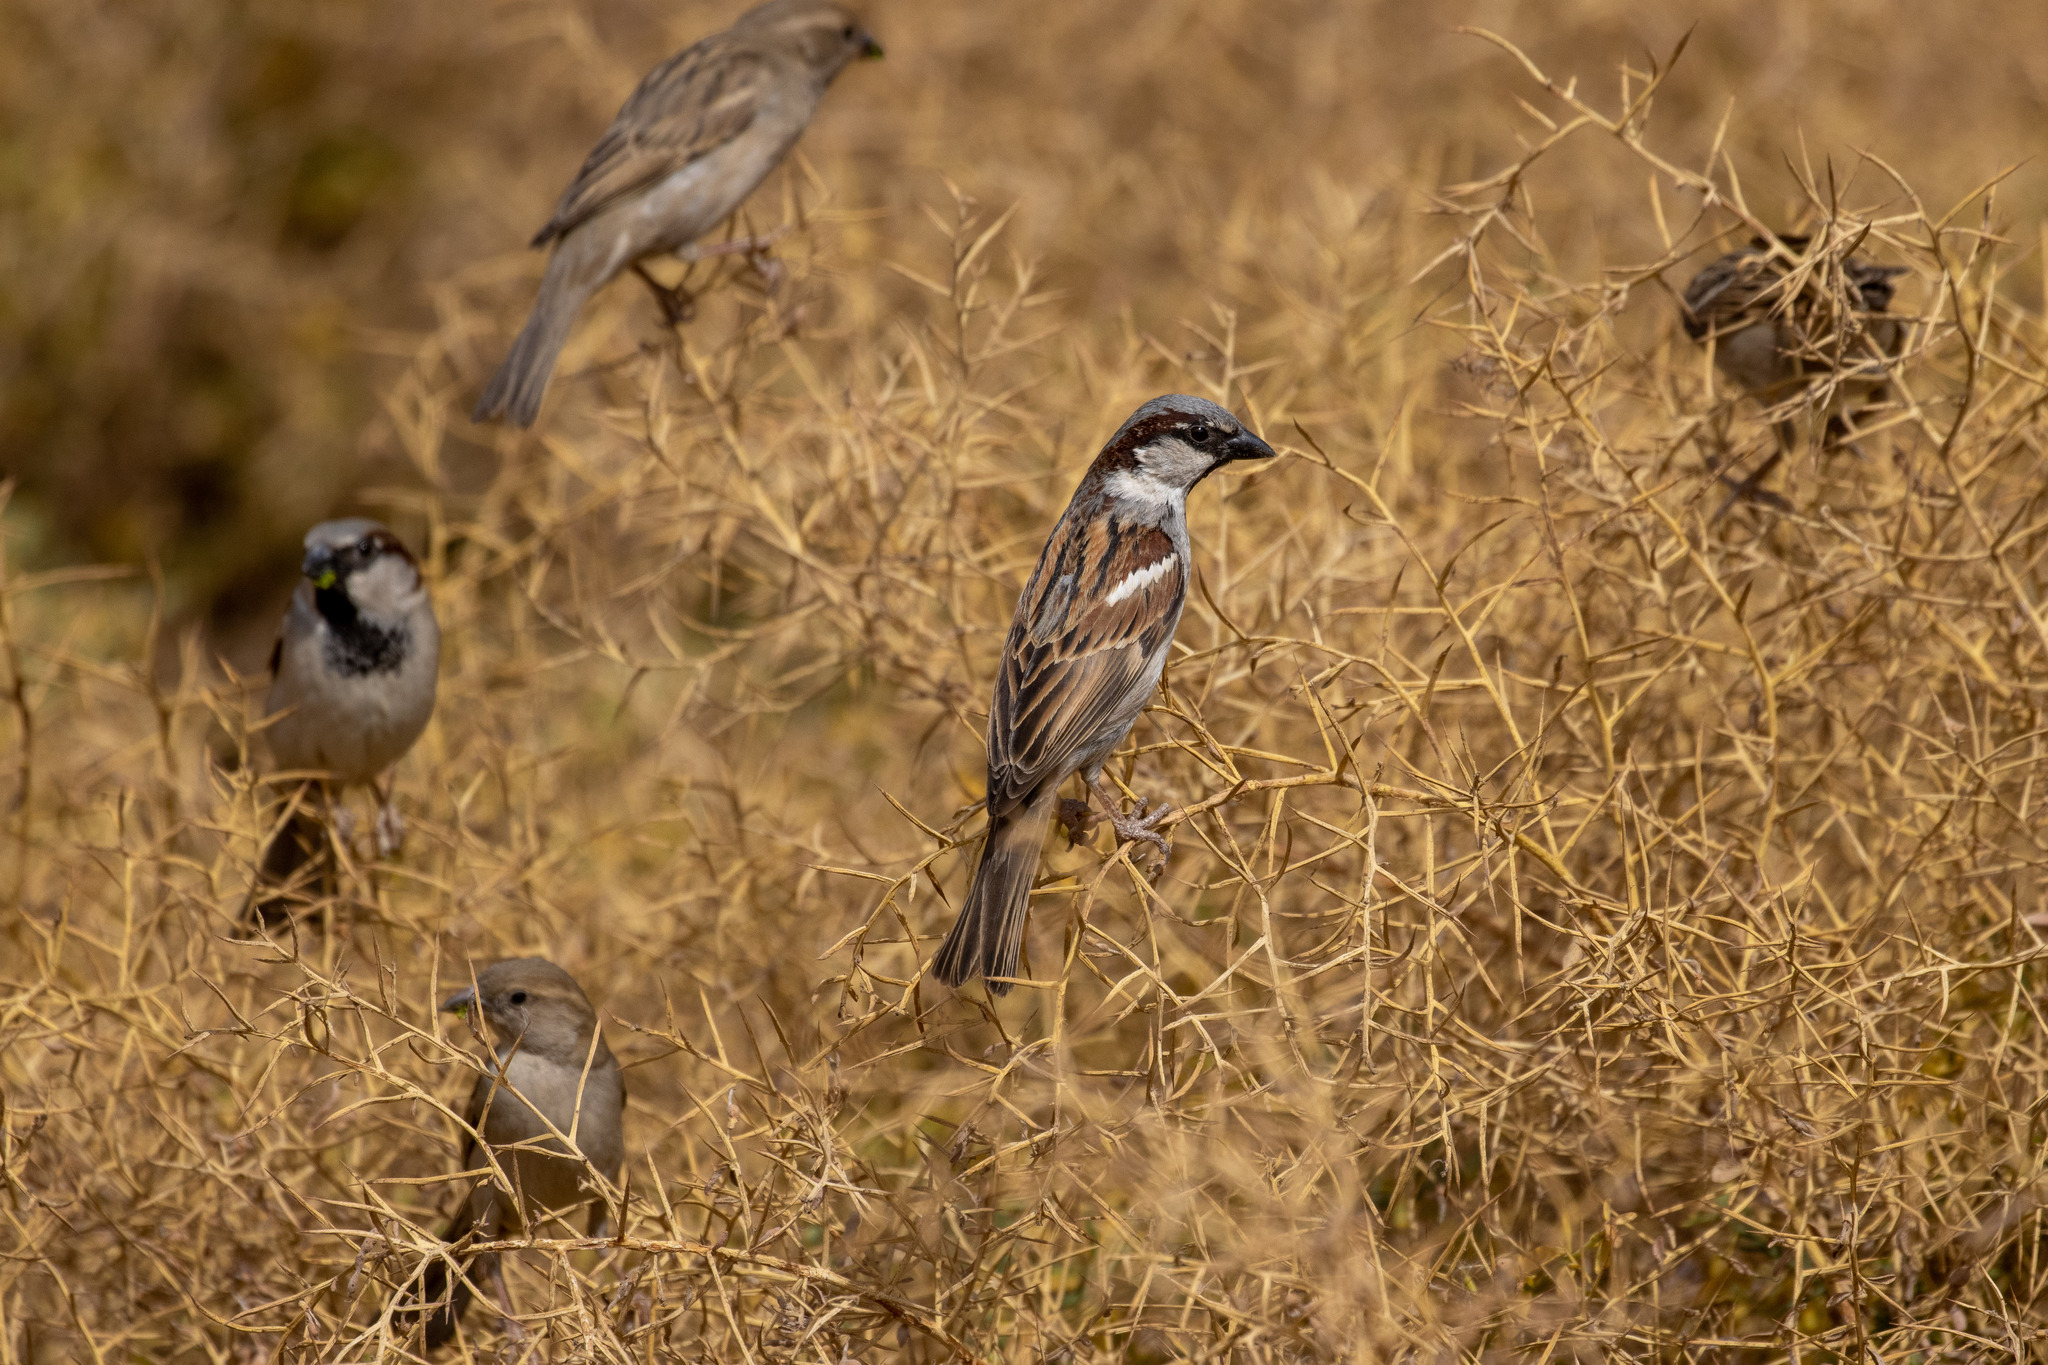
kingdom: Animalia
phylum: Chordata
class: Aves
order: Passeriformes
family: Passeridae
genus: Passer
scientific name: Passer domesticus
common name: House sparrow
